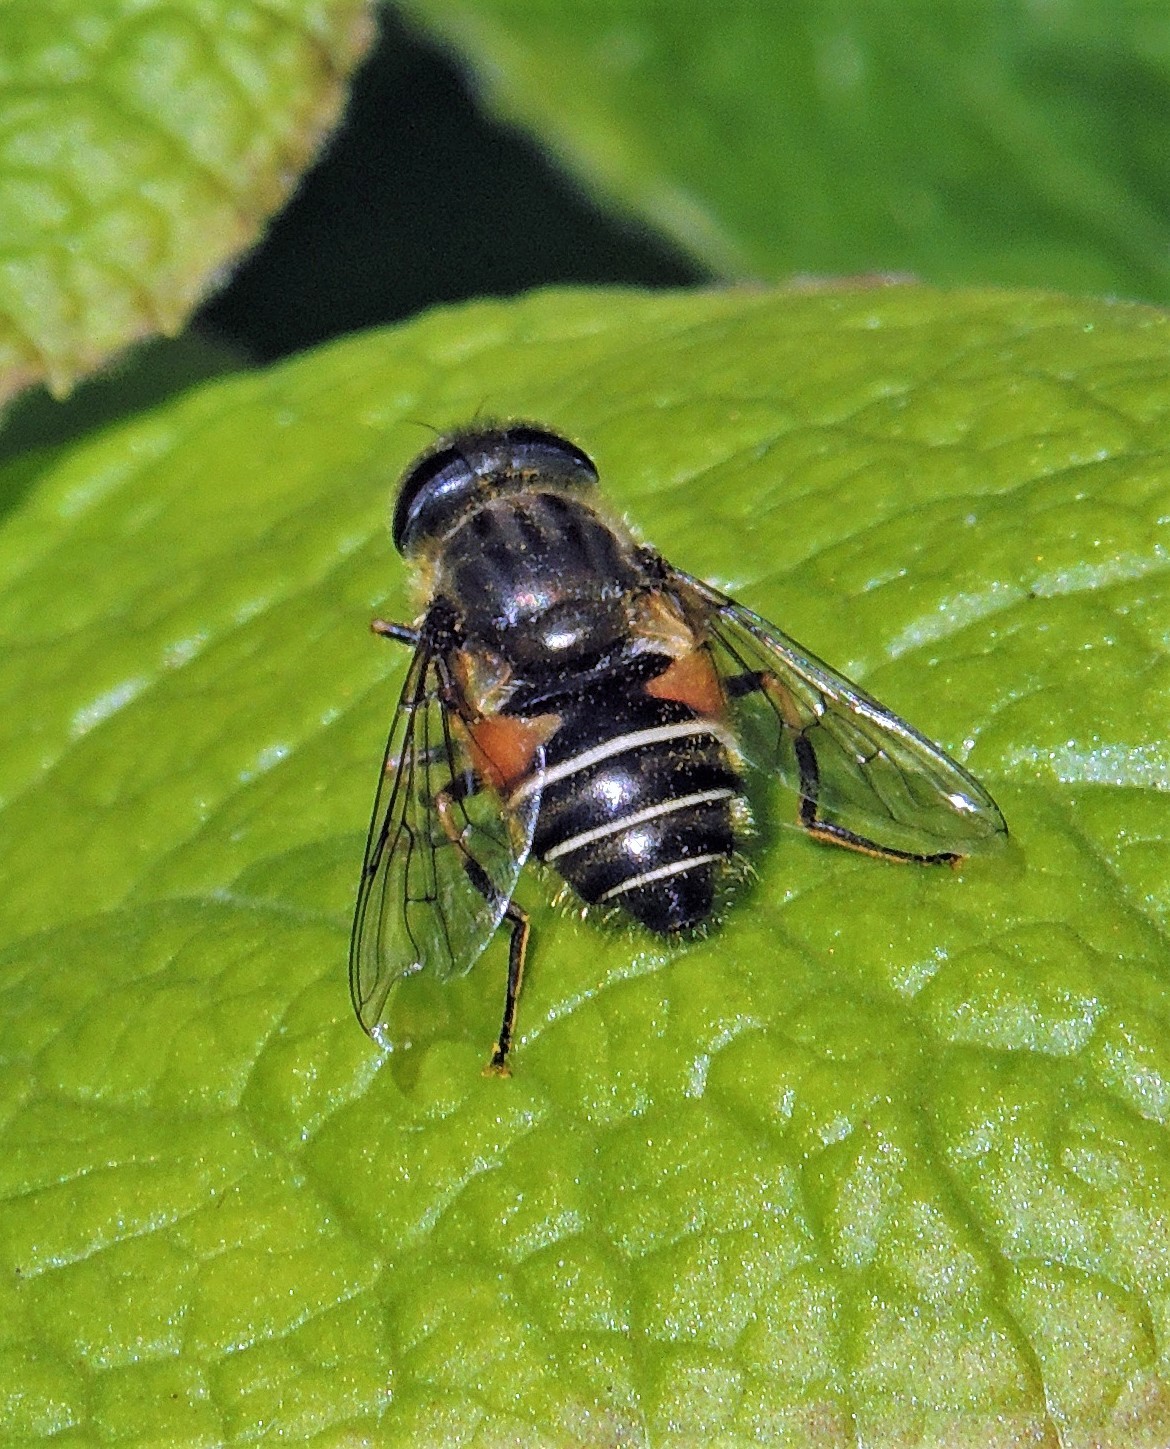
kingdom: Animalia
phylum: Arthropoda
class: Insecta
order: Diptera
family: Syrphidae
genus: Eristalis
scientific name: Eristalis croceimaculata
